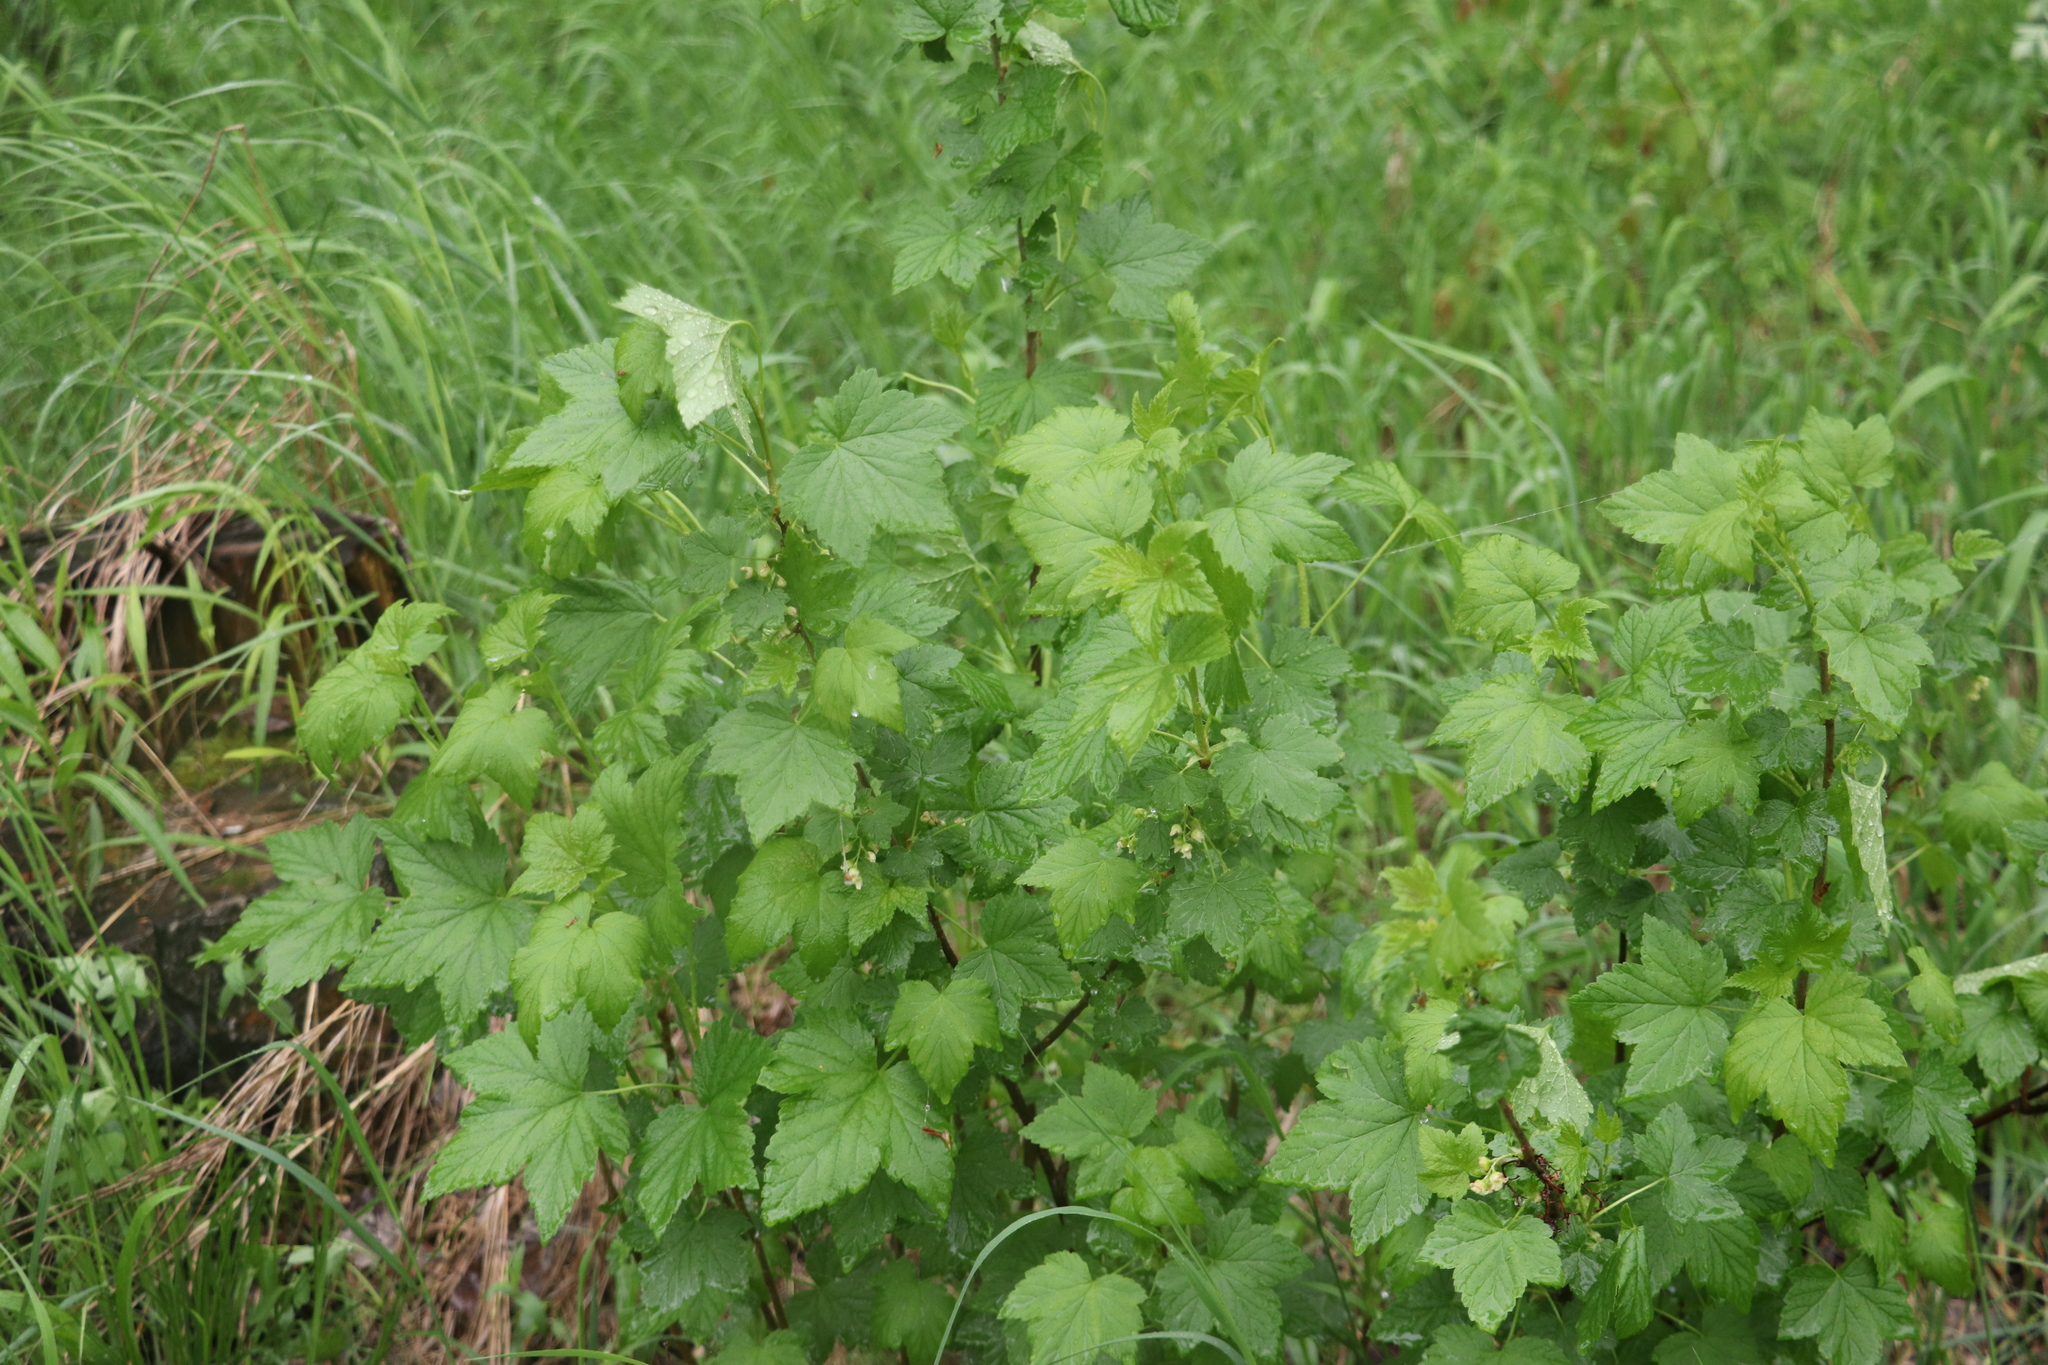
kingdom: Plantae
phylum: Tracheophyta
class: Magnoliopsida
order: Saxifragales
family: Grossulariaceae
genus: Ribes
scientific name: Ribes nigrum
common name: Black currant
